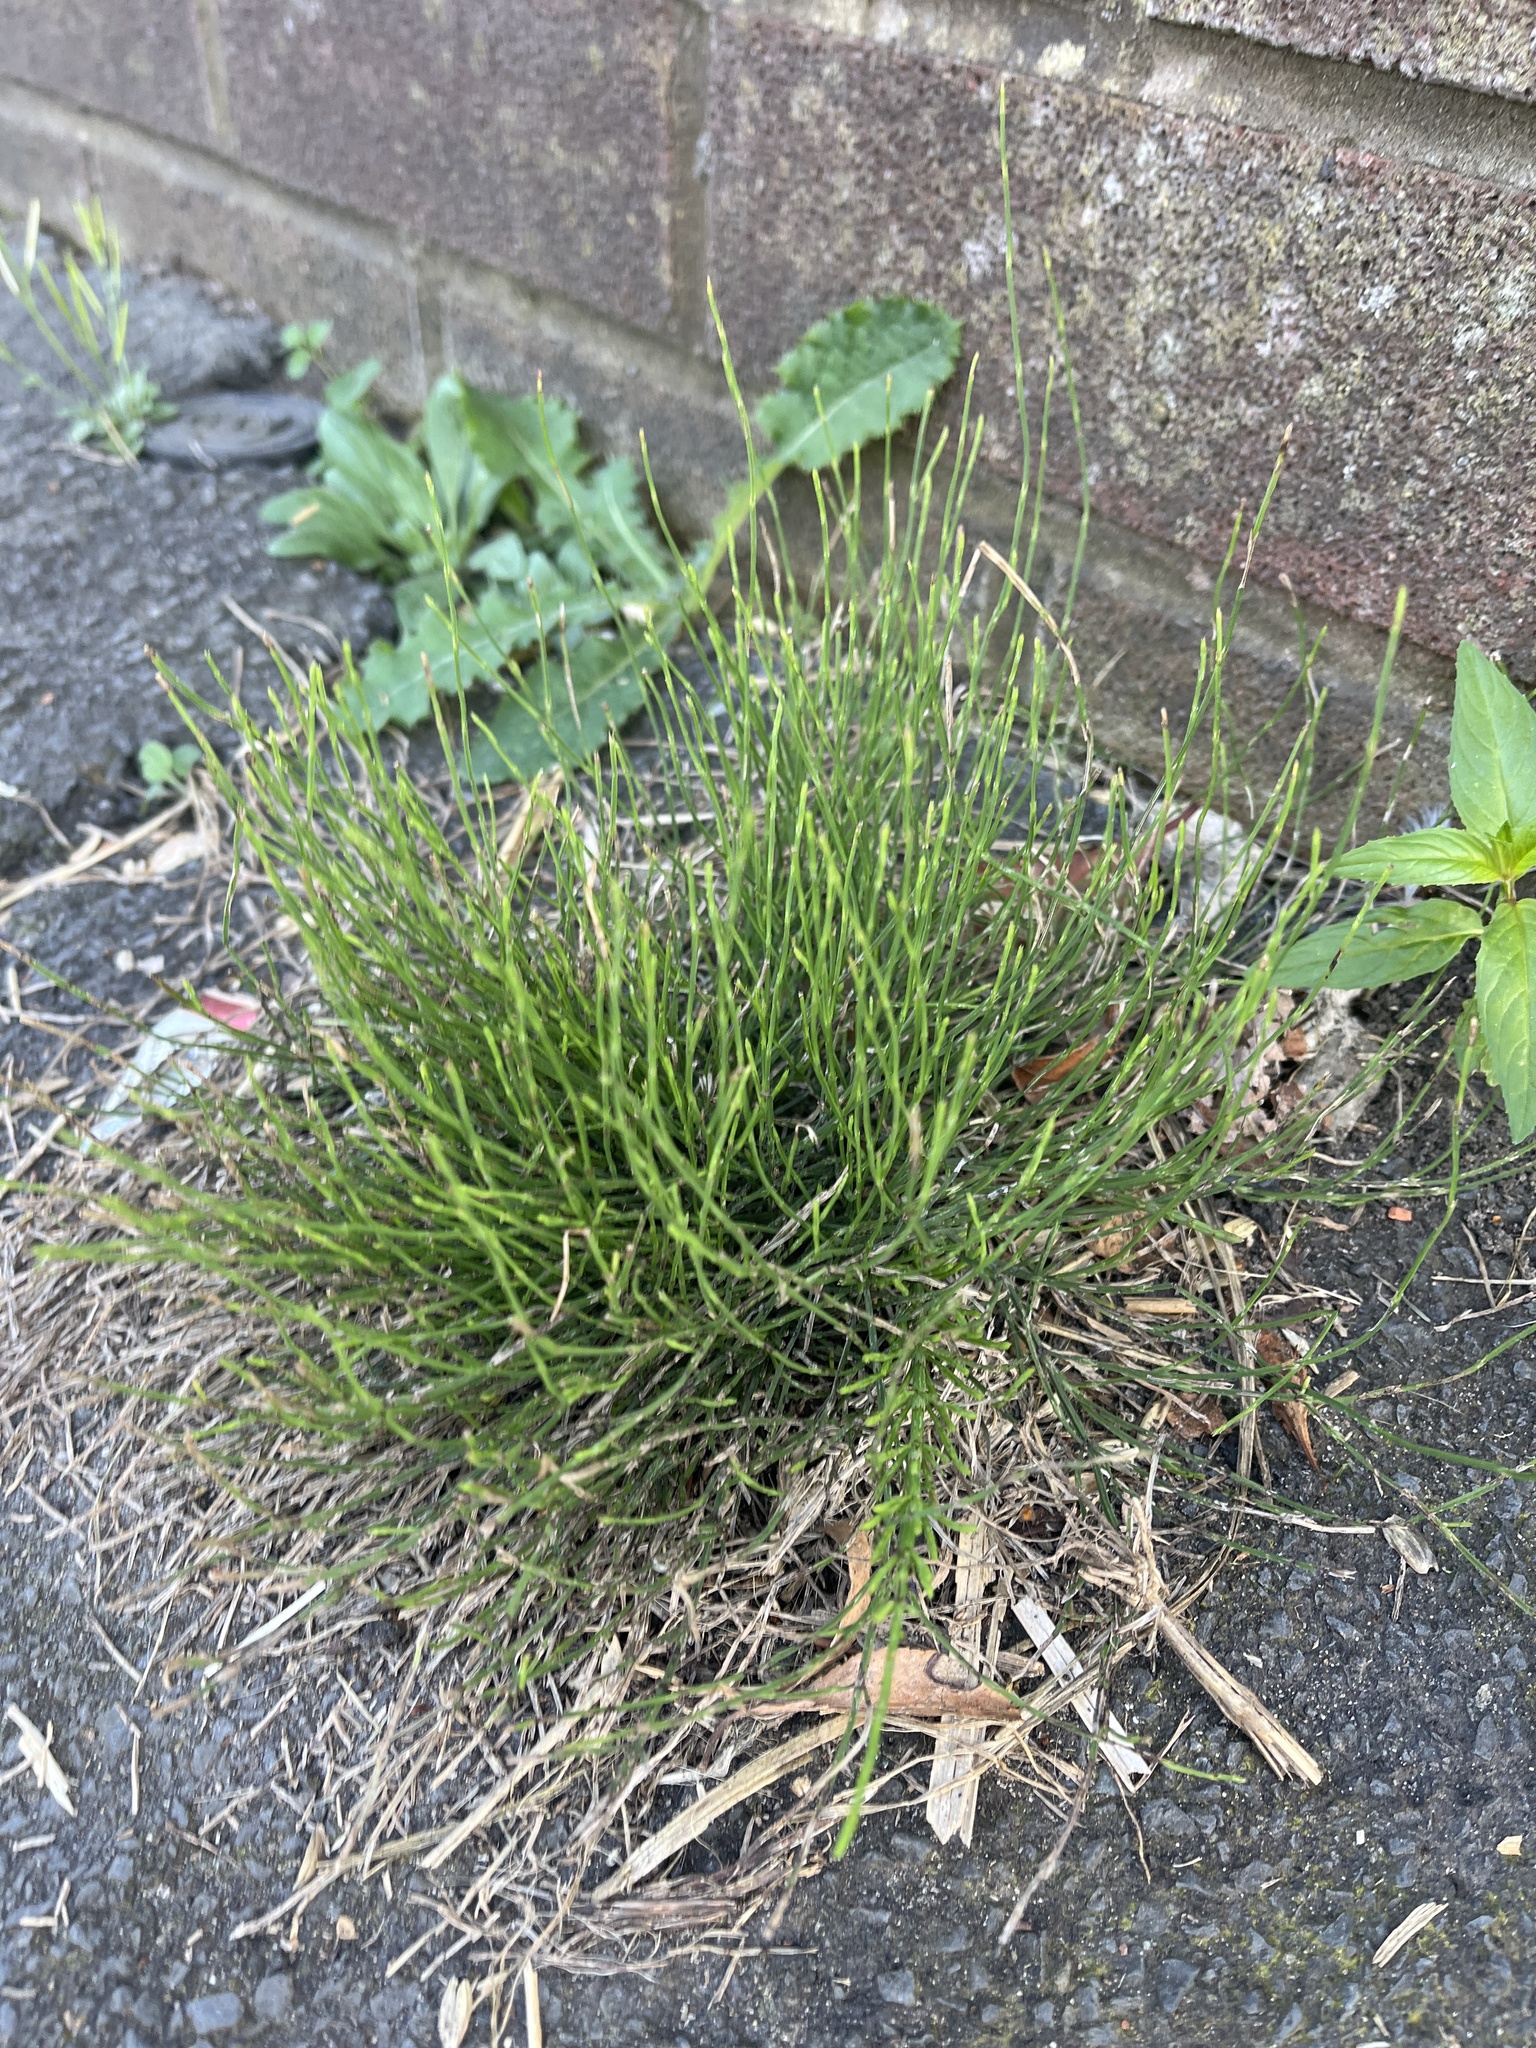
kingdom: Plantae
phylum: Tracheophyta
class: Polypodiopsida
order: Equisetales
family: Equisetaceae
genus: Equisetum
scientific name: Equisetum arvense
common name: Field horsetail
